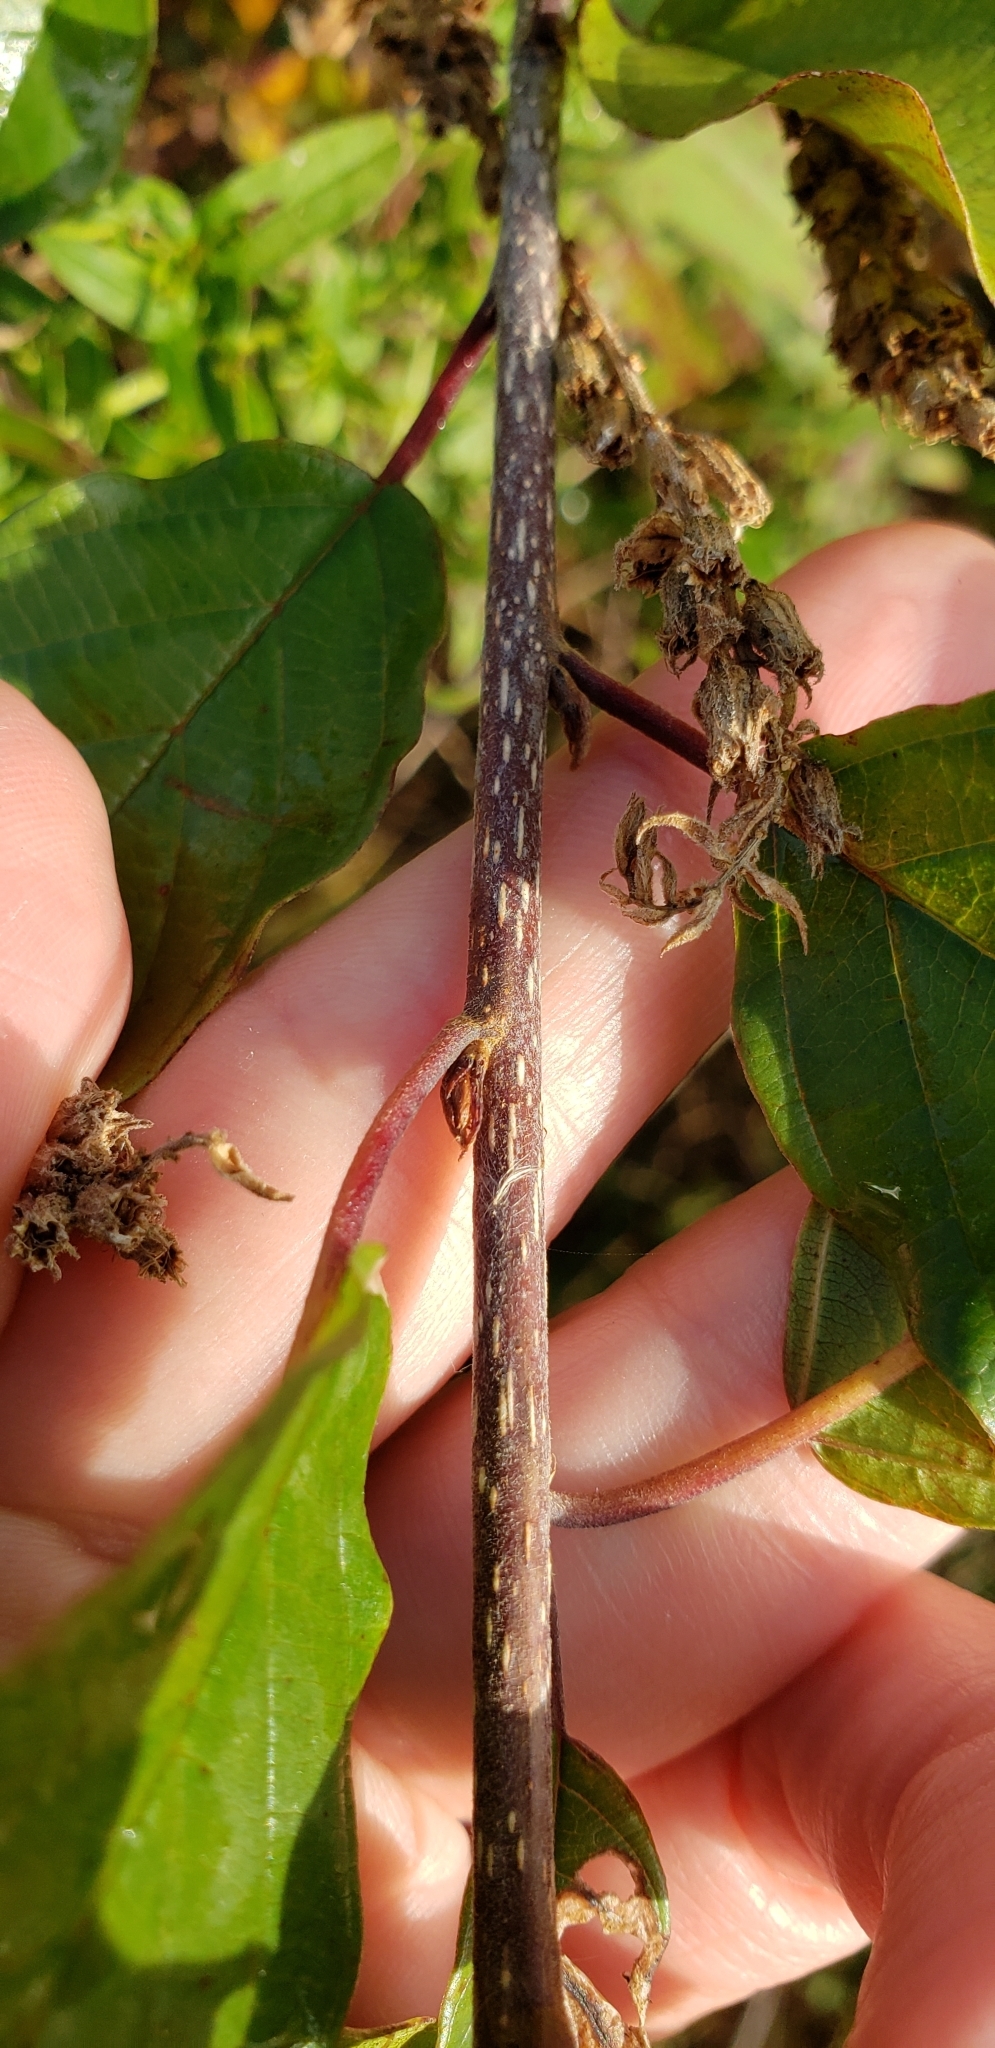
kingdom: Plantae
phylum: Tracheophyta
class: Magnoliopsida
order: Rosales
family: Rhamnaceae
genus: Frangula
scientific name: Frangula alnus
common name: Alder buckthorn
